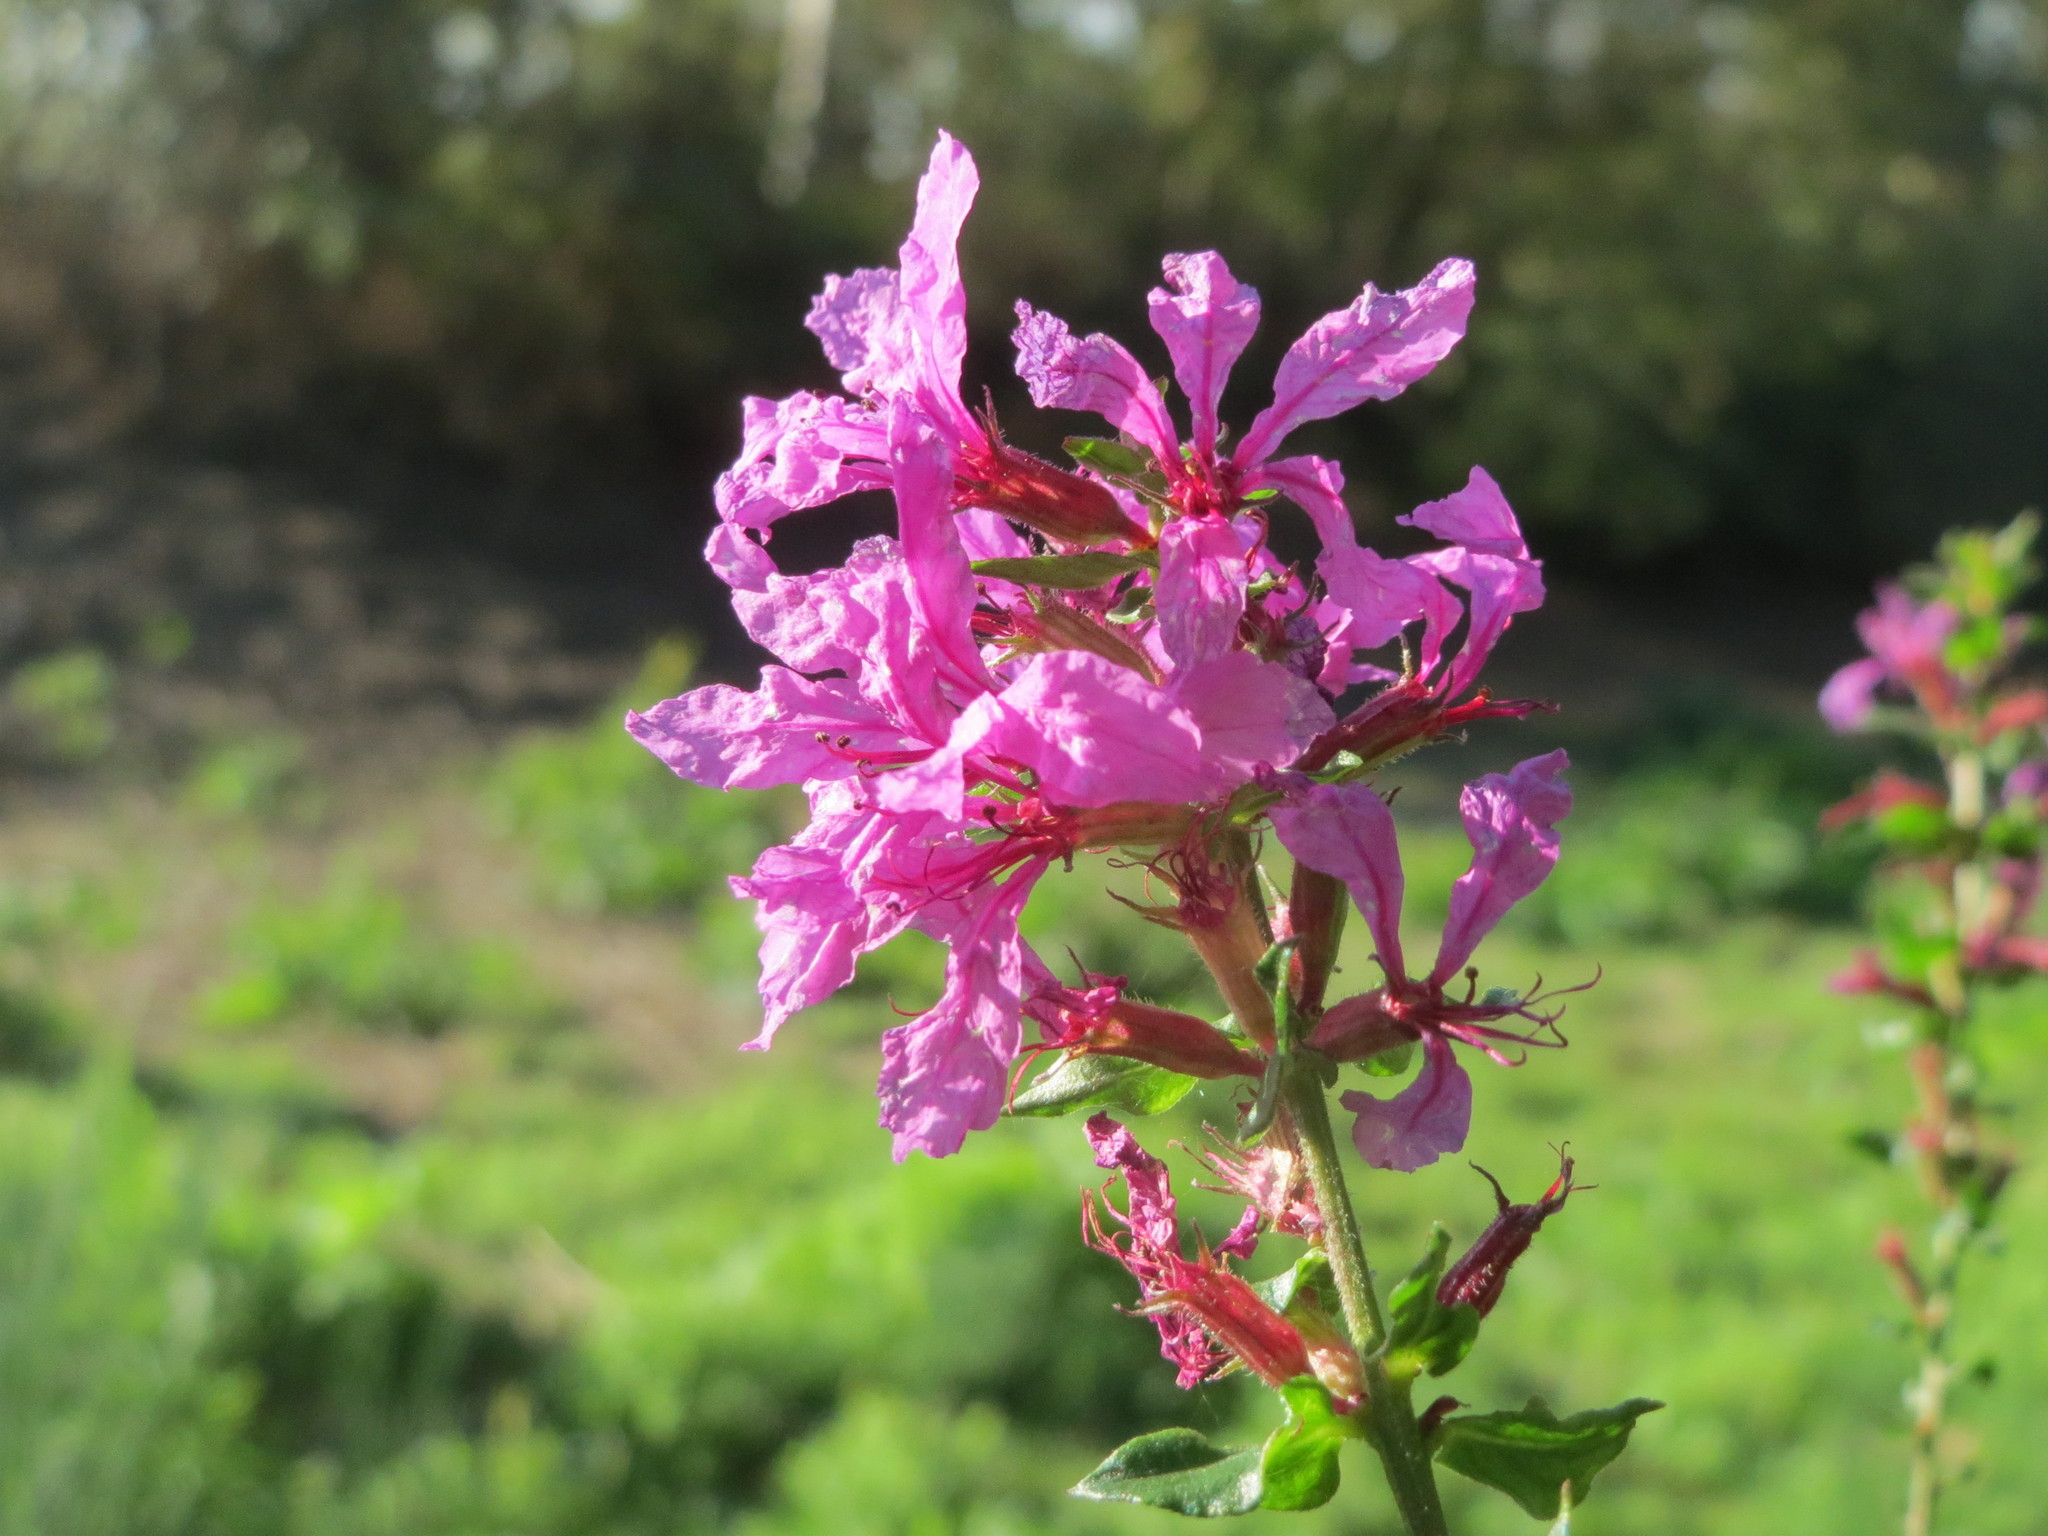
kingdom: Plantae
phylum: Tracheophyta
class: Magnoliopsida
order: Myrtales
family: Lythraceae
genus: Lythrum
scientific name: Lythrum salicaria
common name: Purple loosestrife
